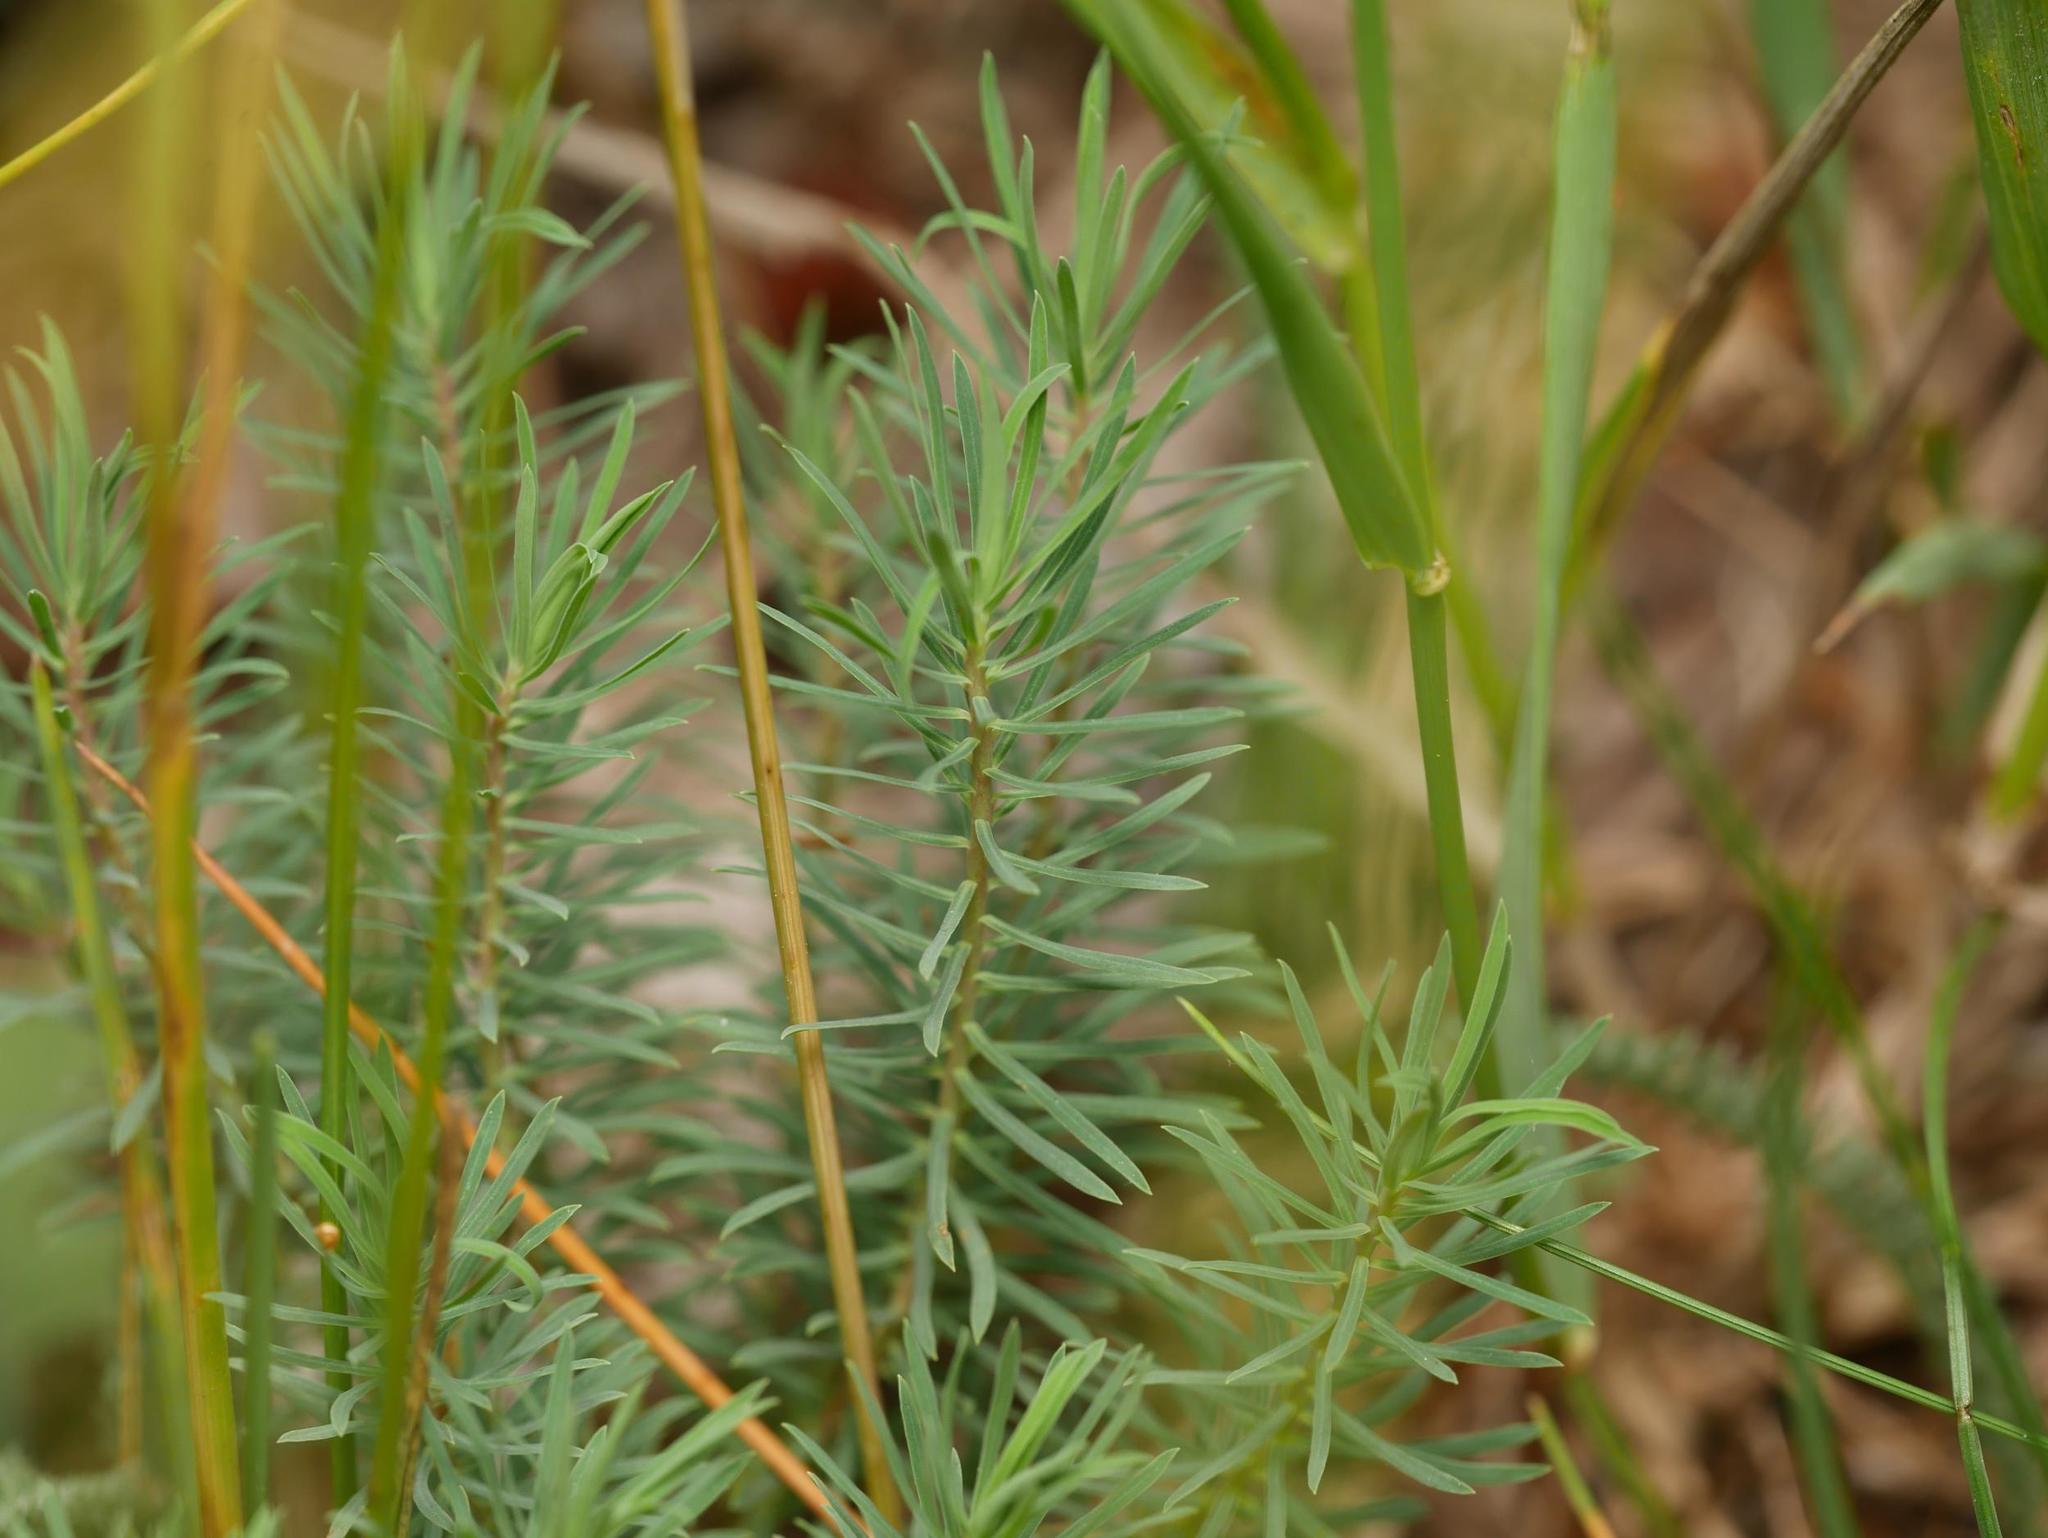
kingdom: Plantae
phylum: Tracheophyta
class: Magnoliopsida
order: Malpighiales
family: Euphorbiaceae
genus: Euphorbia
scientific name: Euphorbia cyparissias
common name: Cypress spurge
